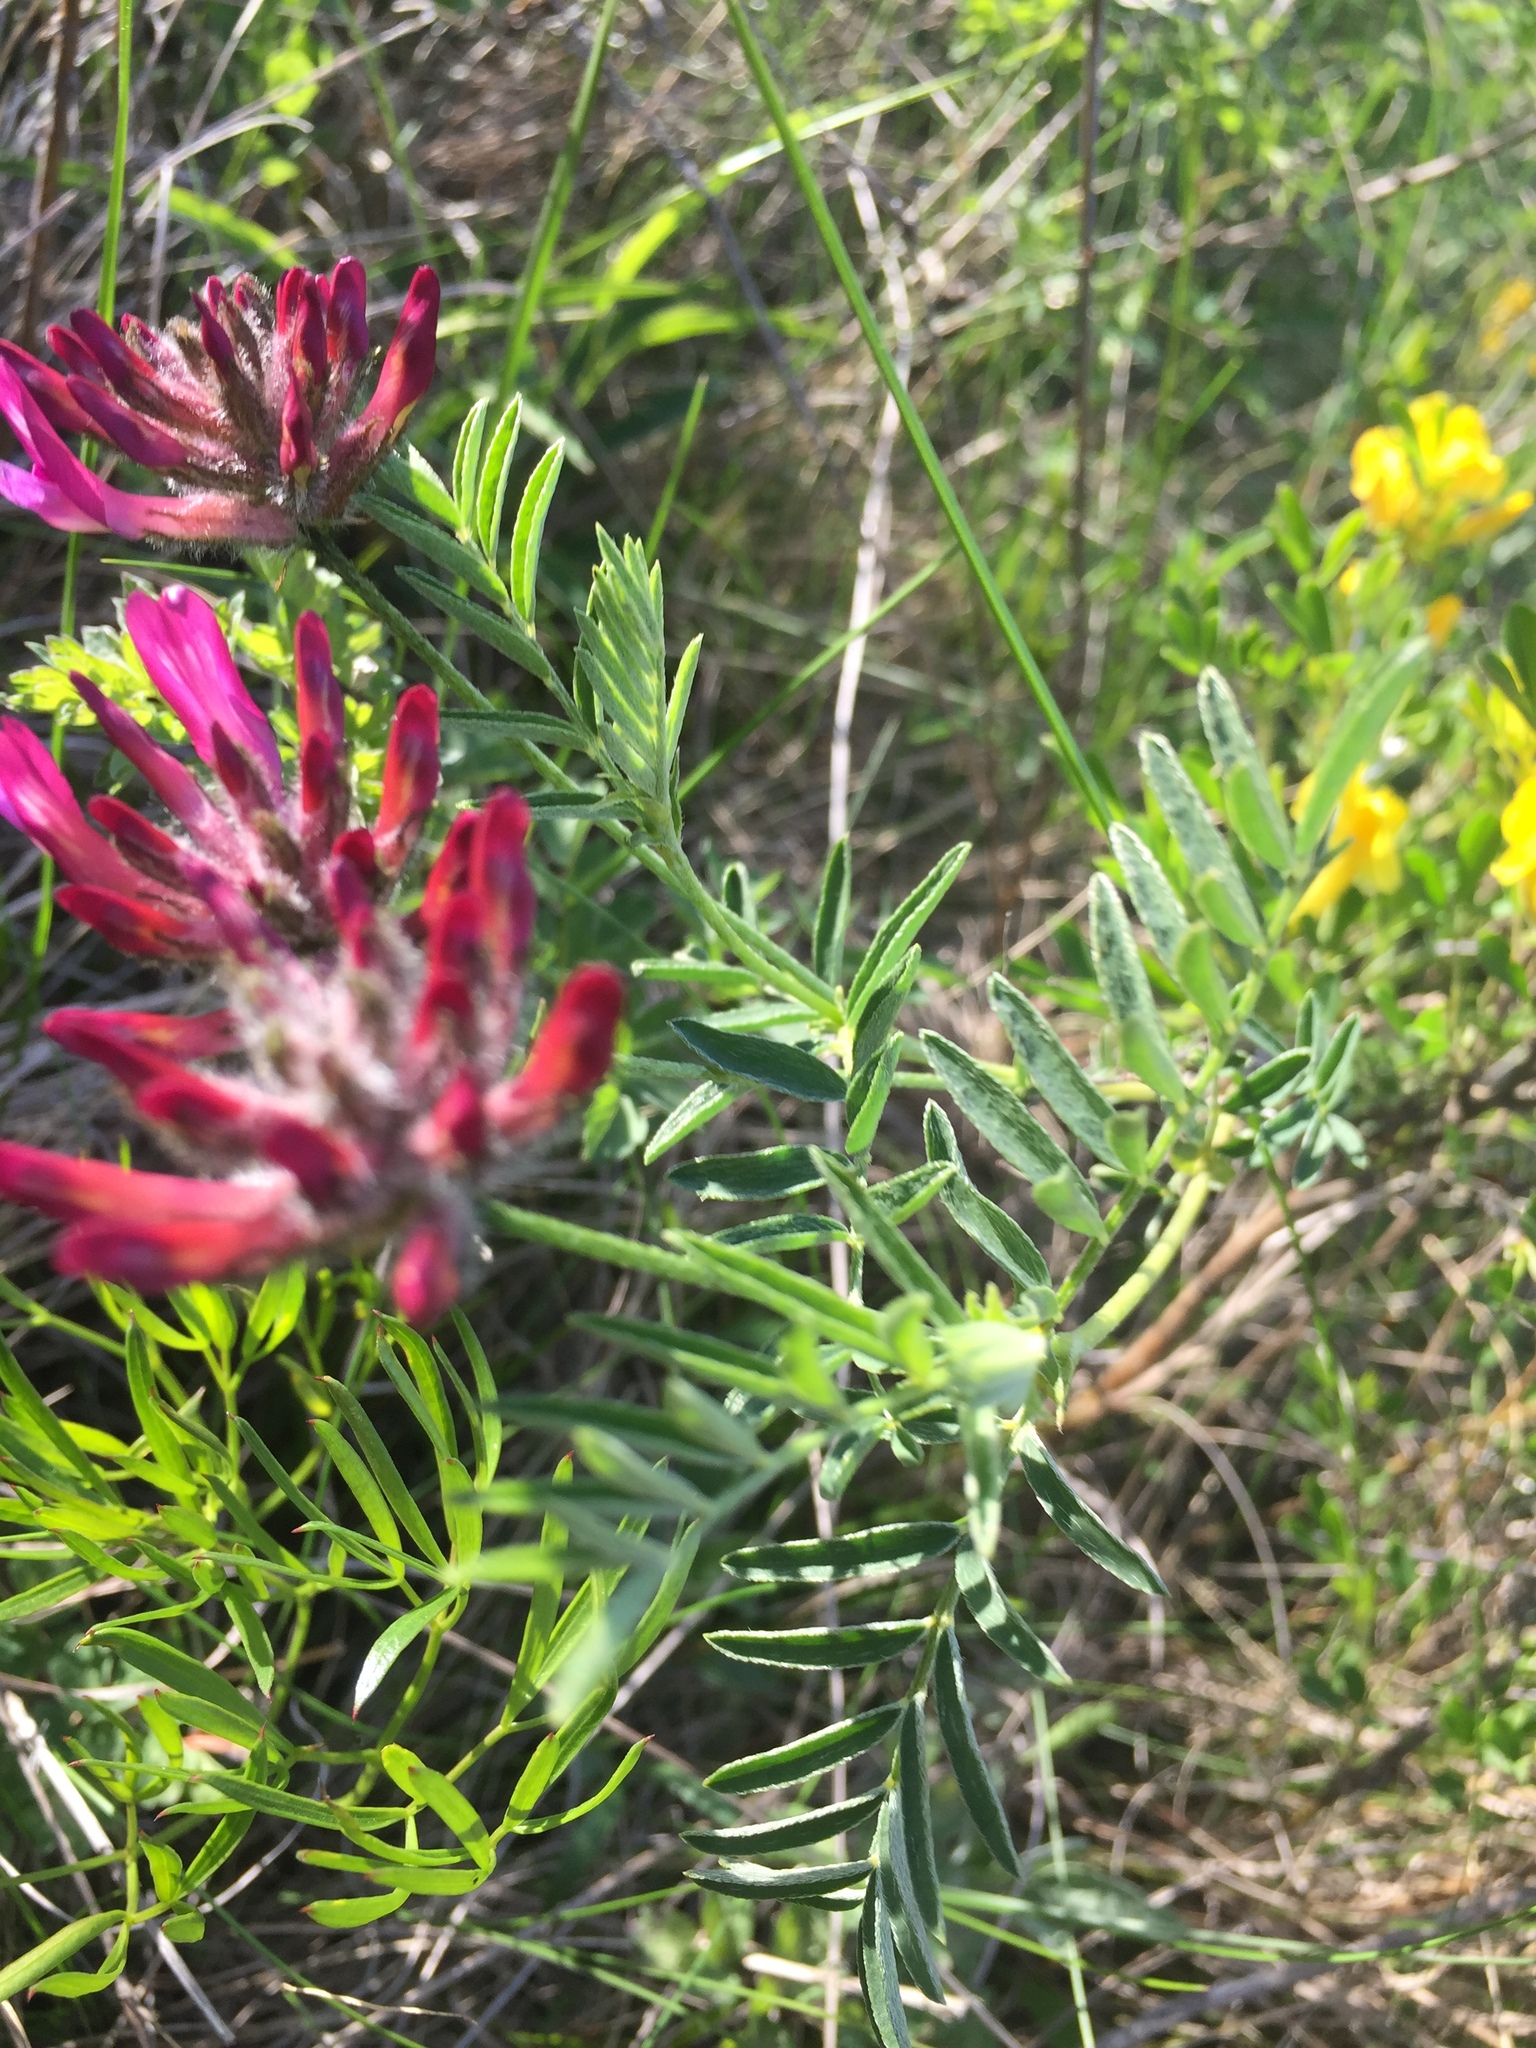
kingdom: Plantae
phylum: Tracheophyta
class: Magnoliopsida
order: Fabales
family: Fabaceae
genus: Astragalus
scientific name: Astragalus cornutus
